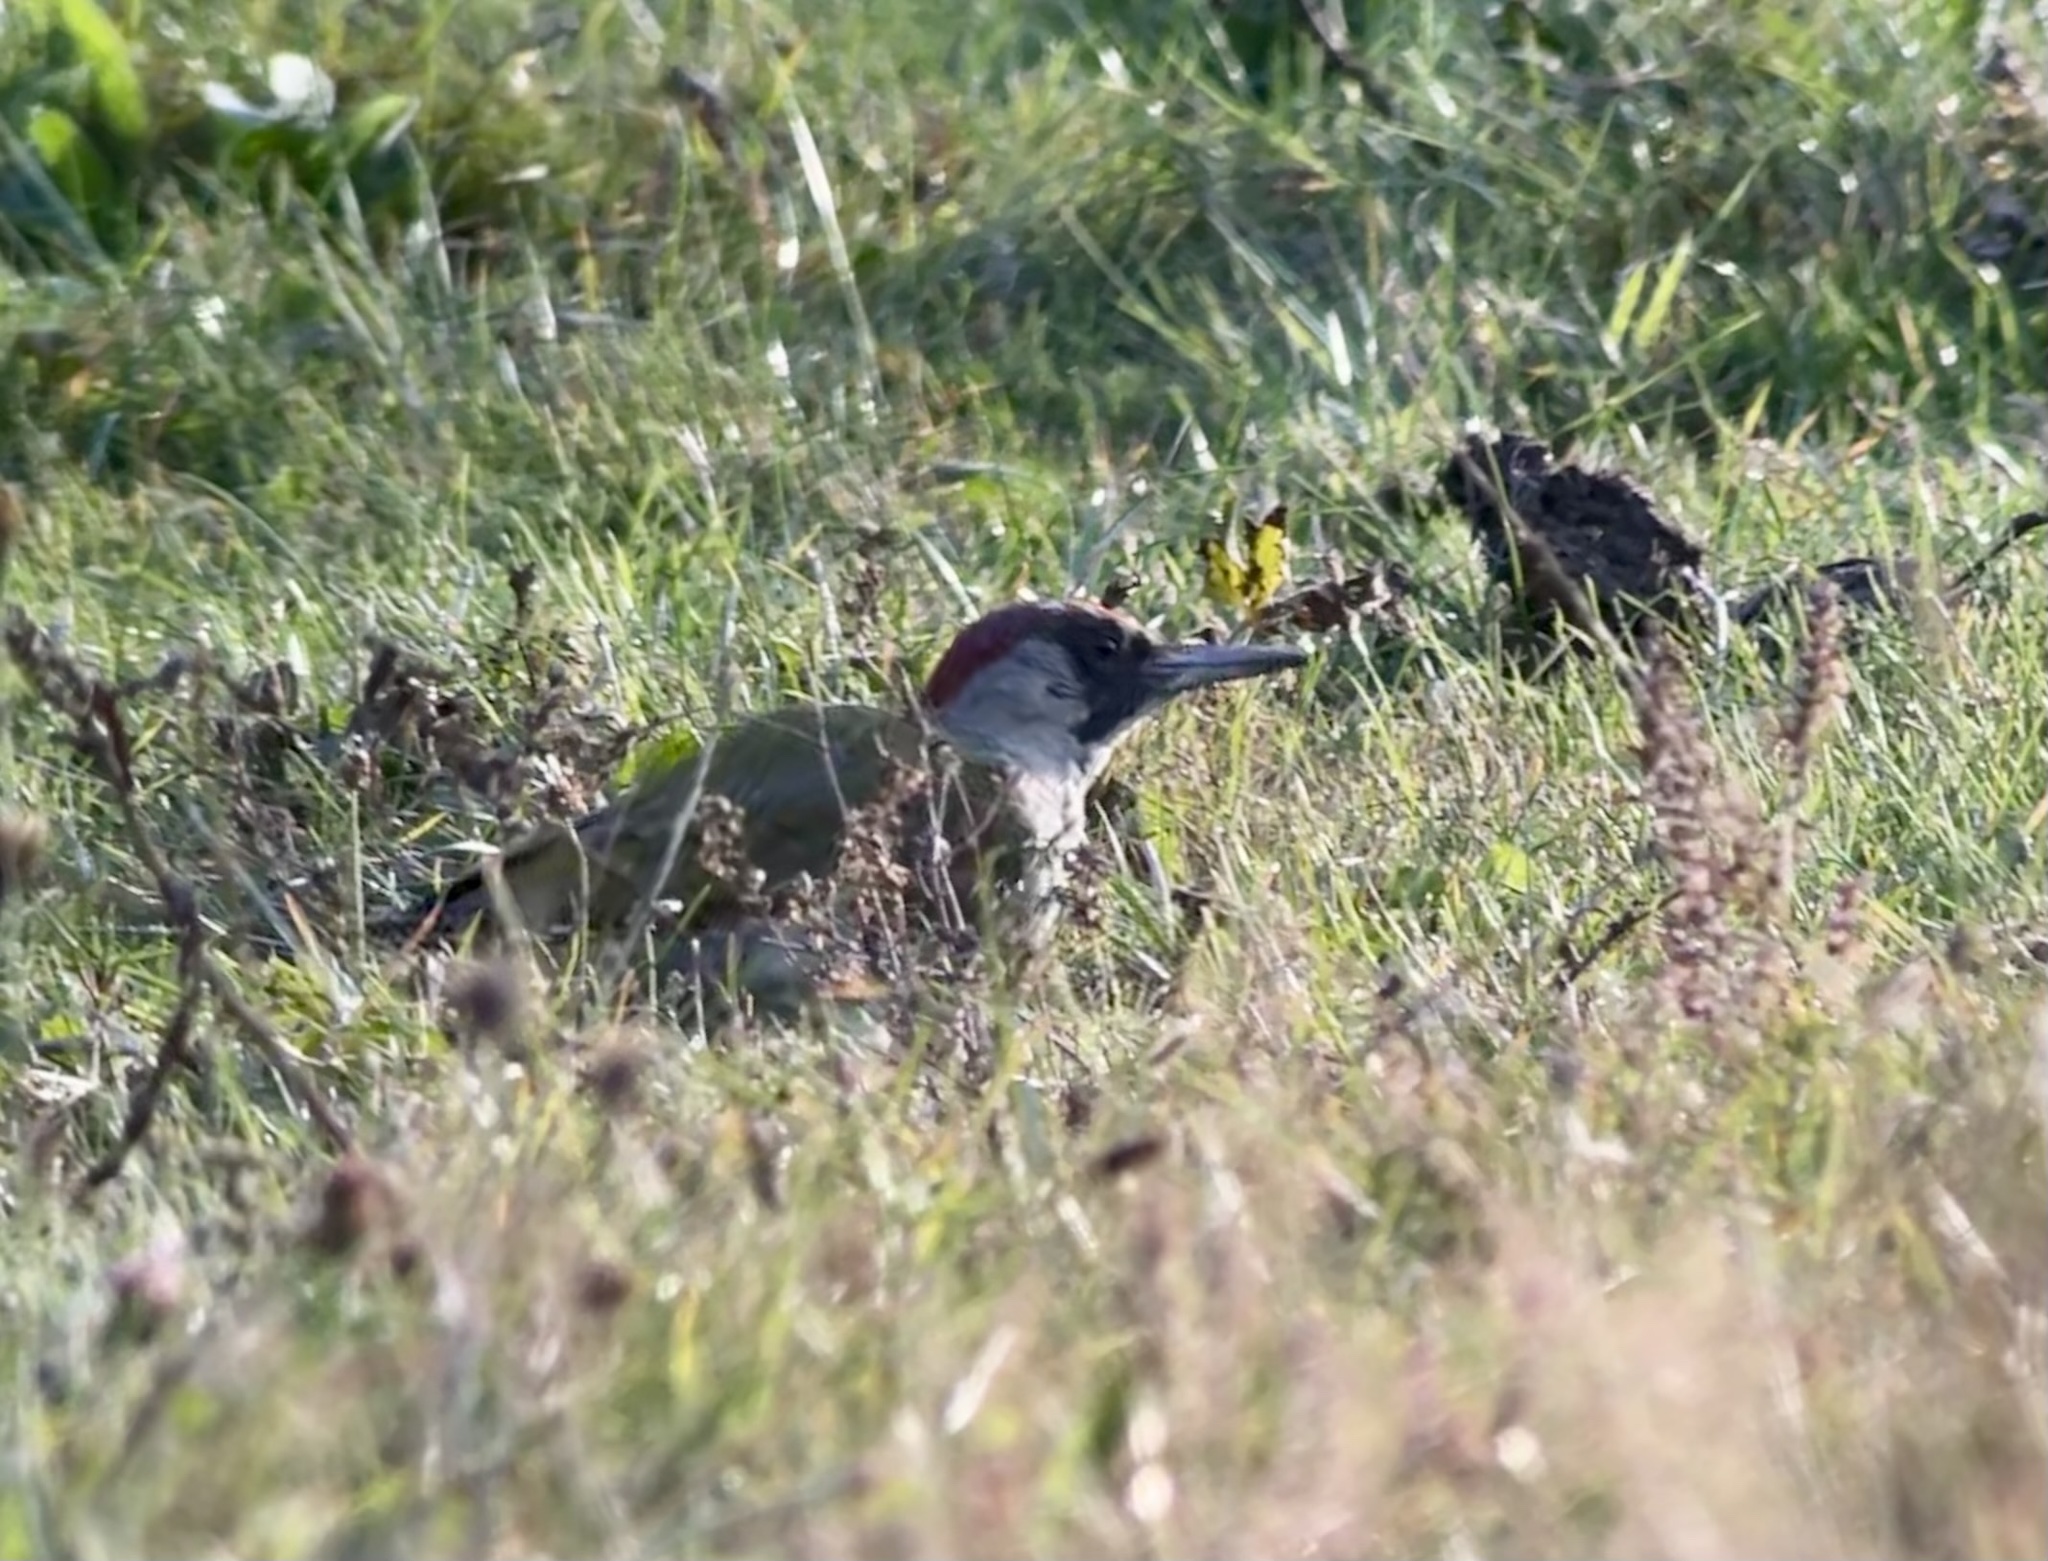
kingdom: Animalia
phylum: Chordata
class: Aves
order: Piciformes
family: Picidae
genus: Picus
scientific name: Picus viridis
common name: European green woodpecker
